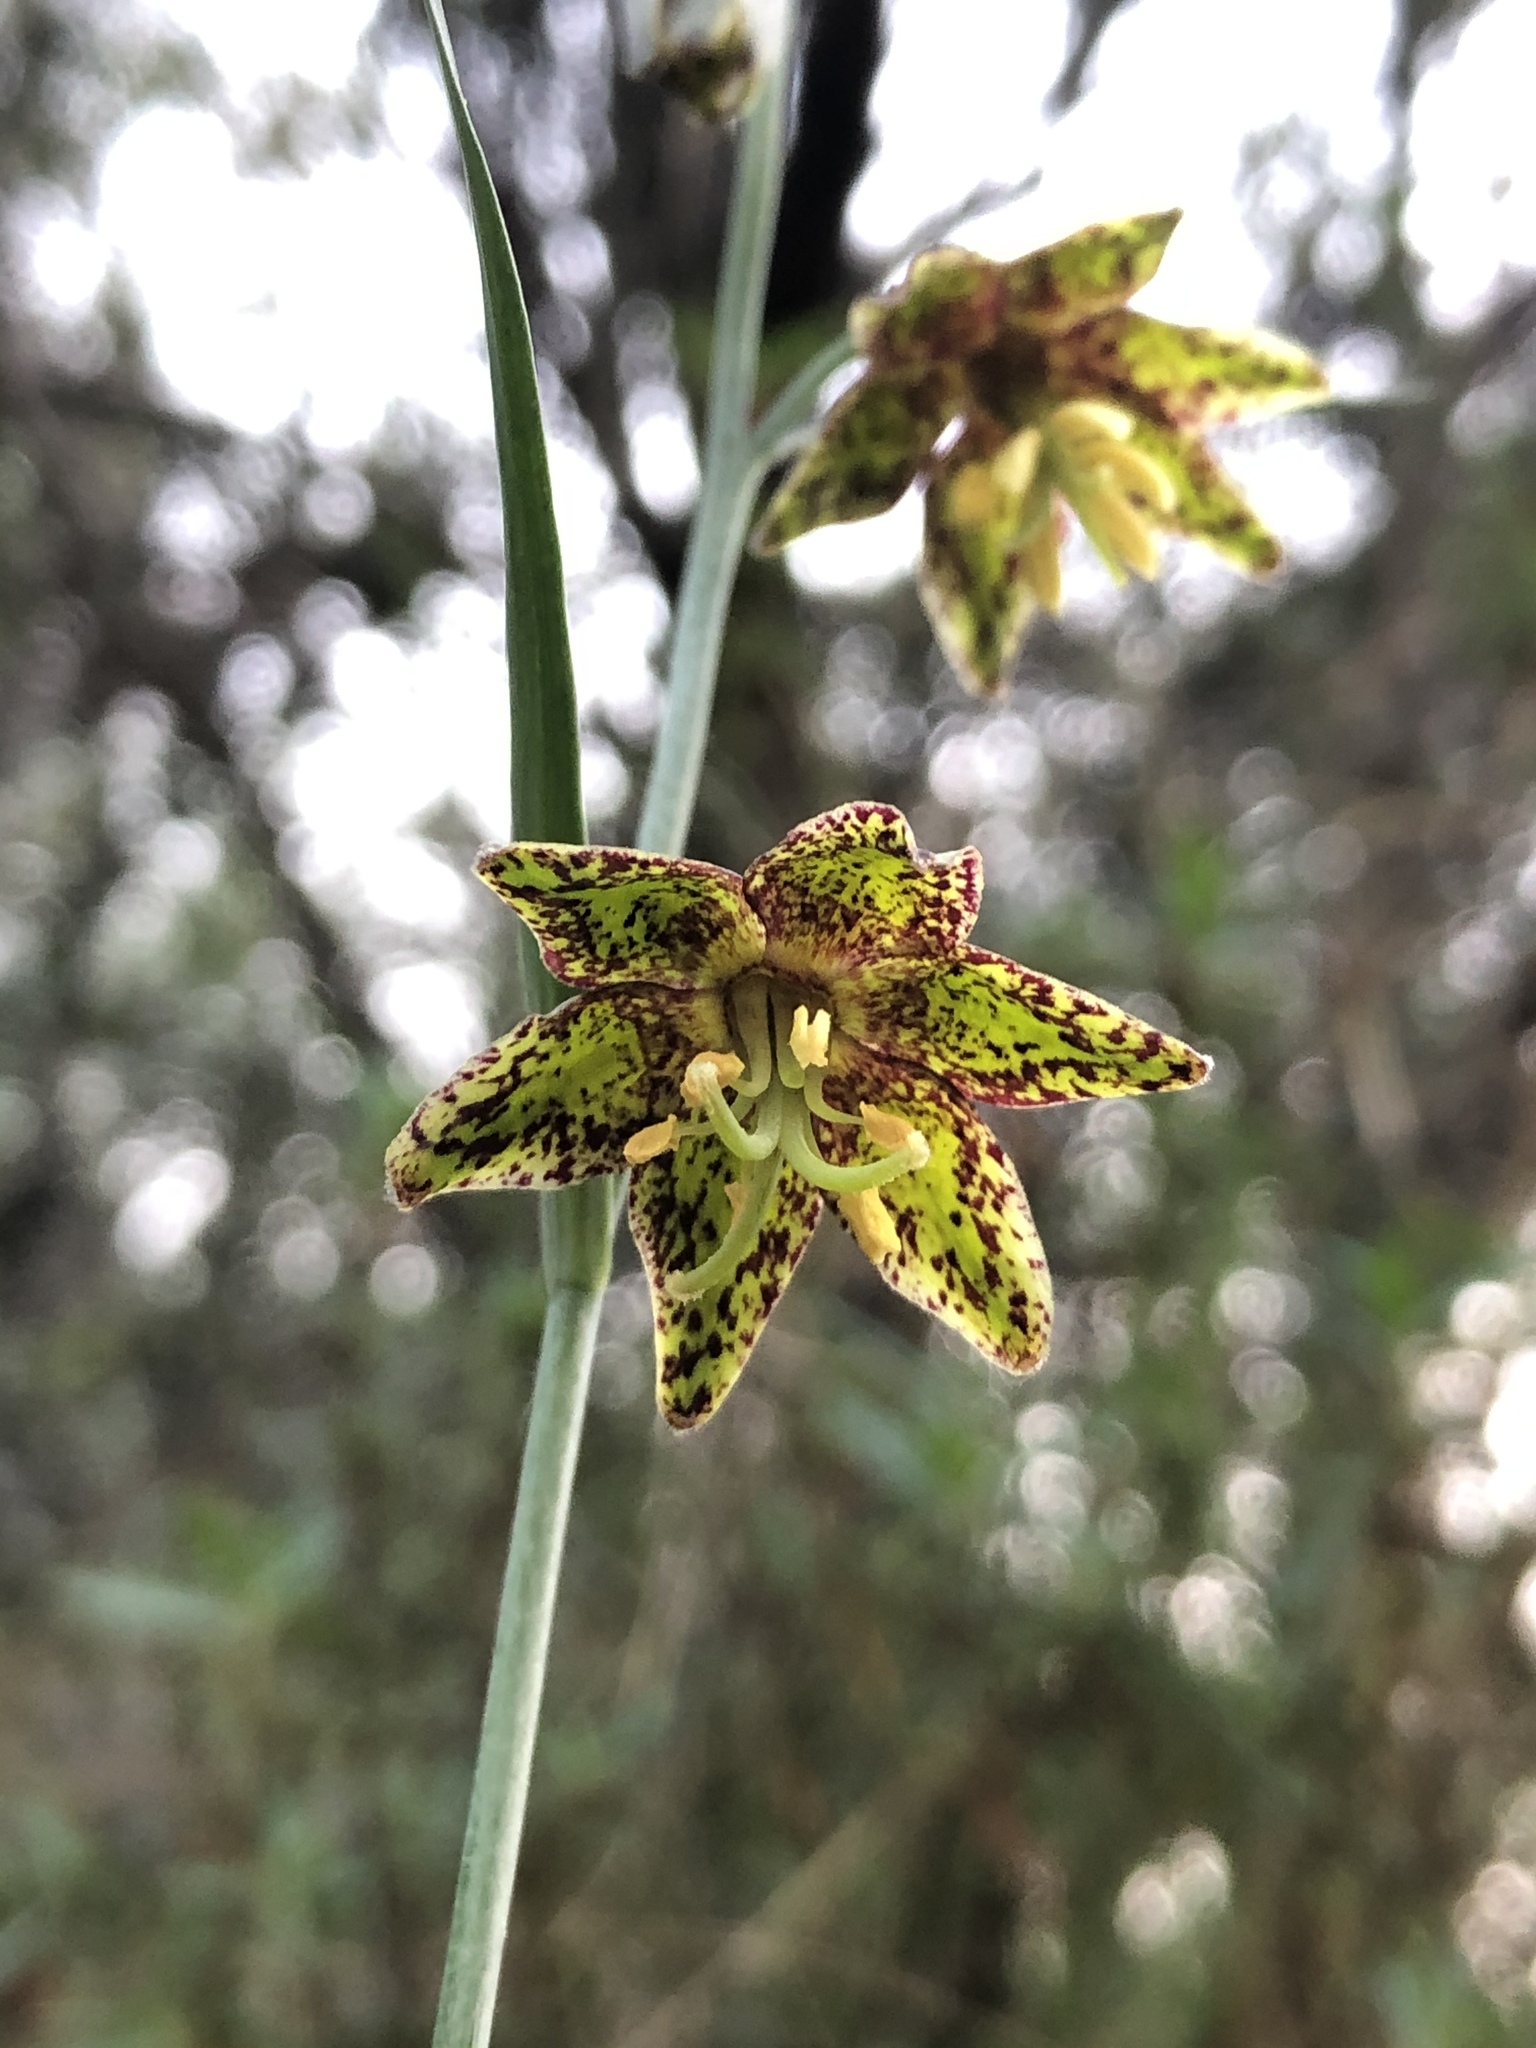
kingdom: Plantae
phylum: Tracheophyta
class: Liliopsida
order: Liliales
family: Liliaceae
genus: Fritillaria
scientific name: Fritillaria ojaiensis
